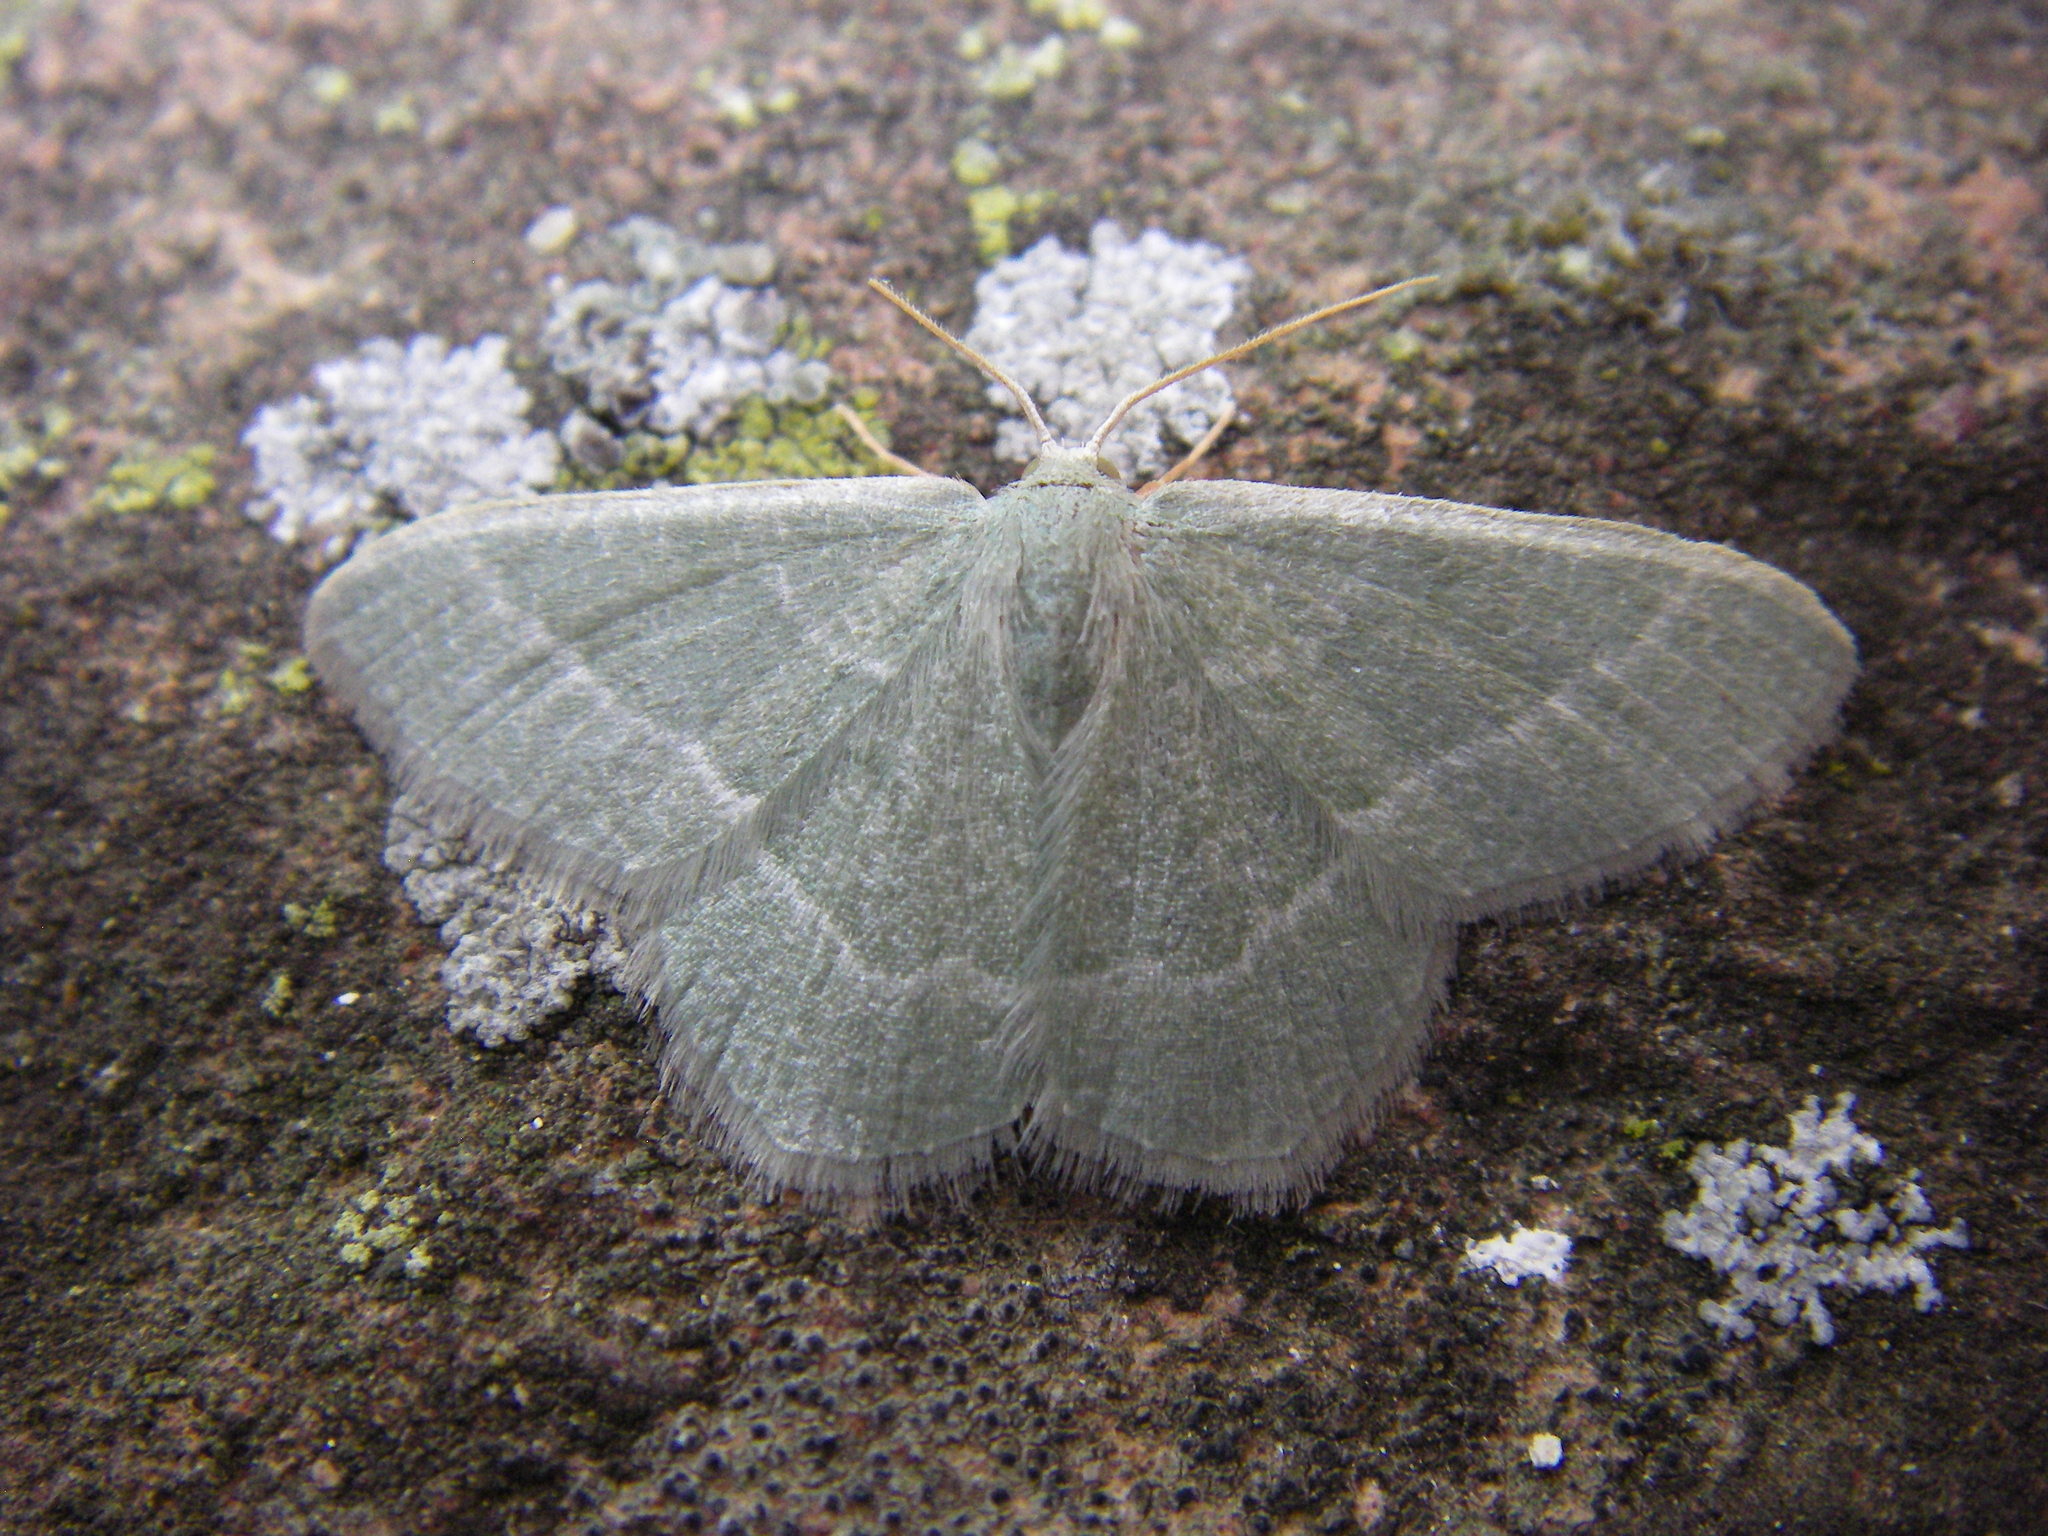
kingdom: Animalia
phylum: Arthropoda
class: Insecta
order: Lepidoptera
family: Geometridae
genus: Chlorissa
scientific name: Chlorissa etruscaria
